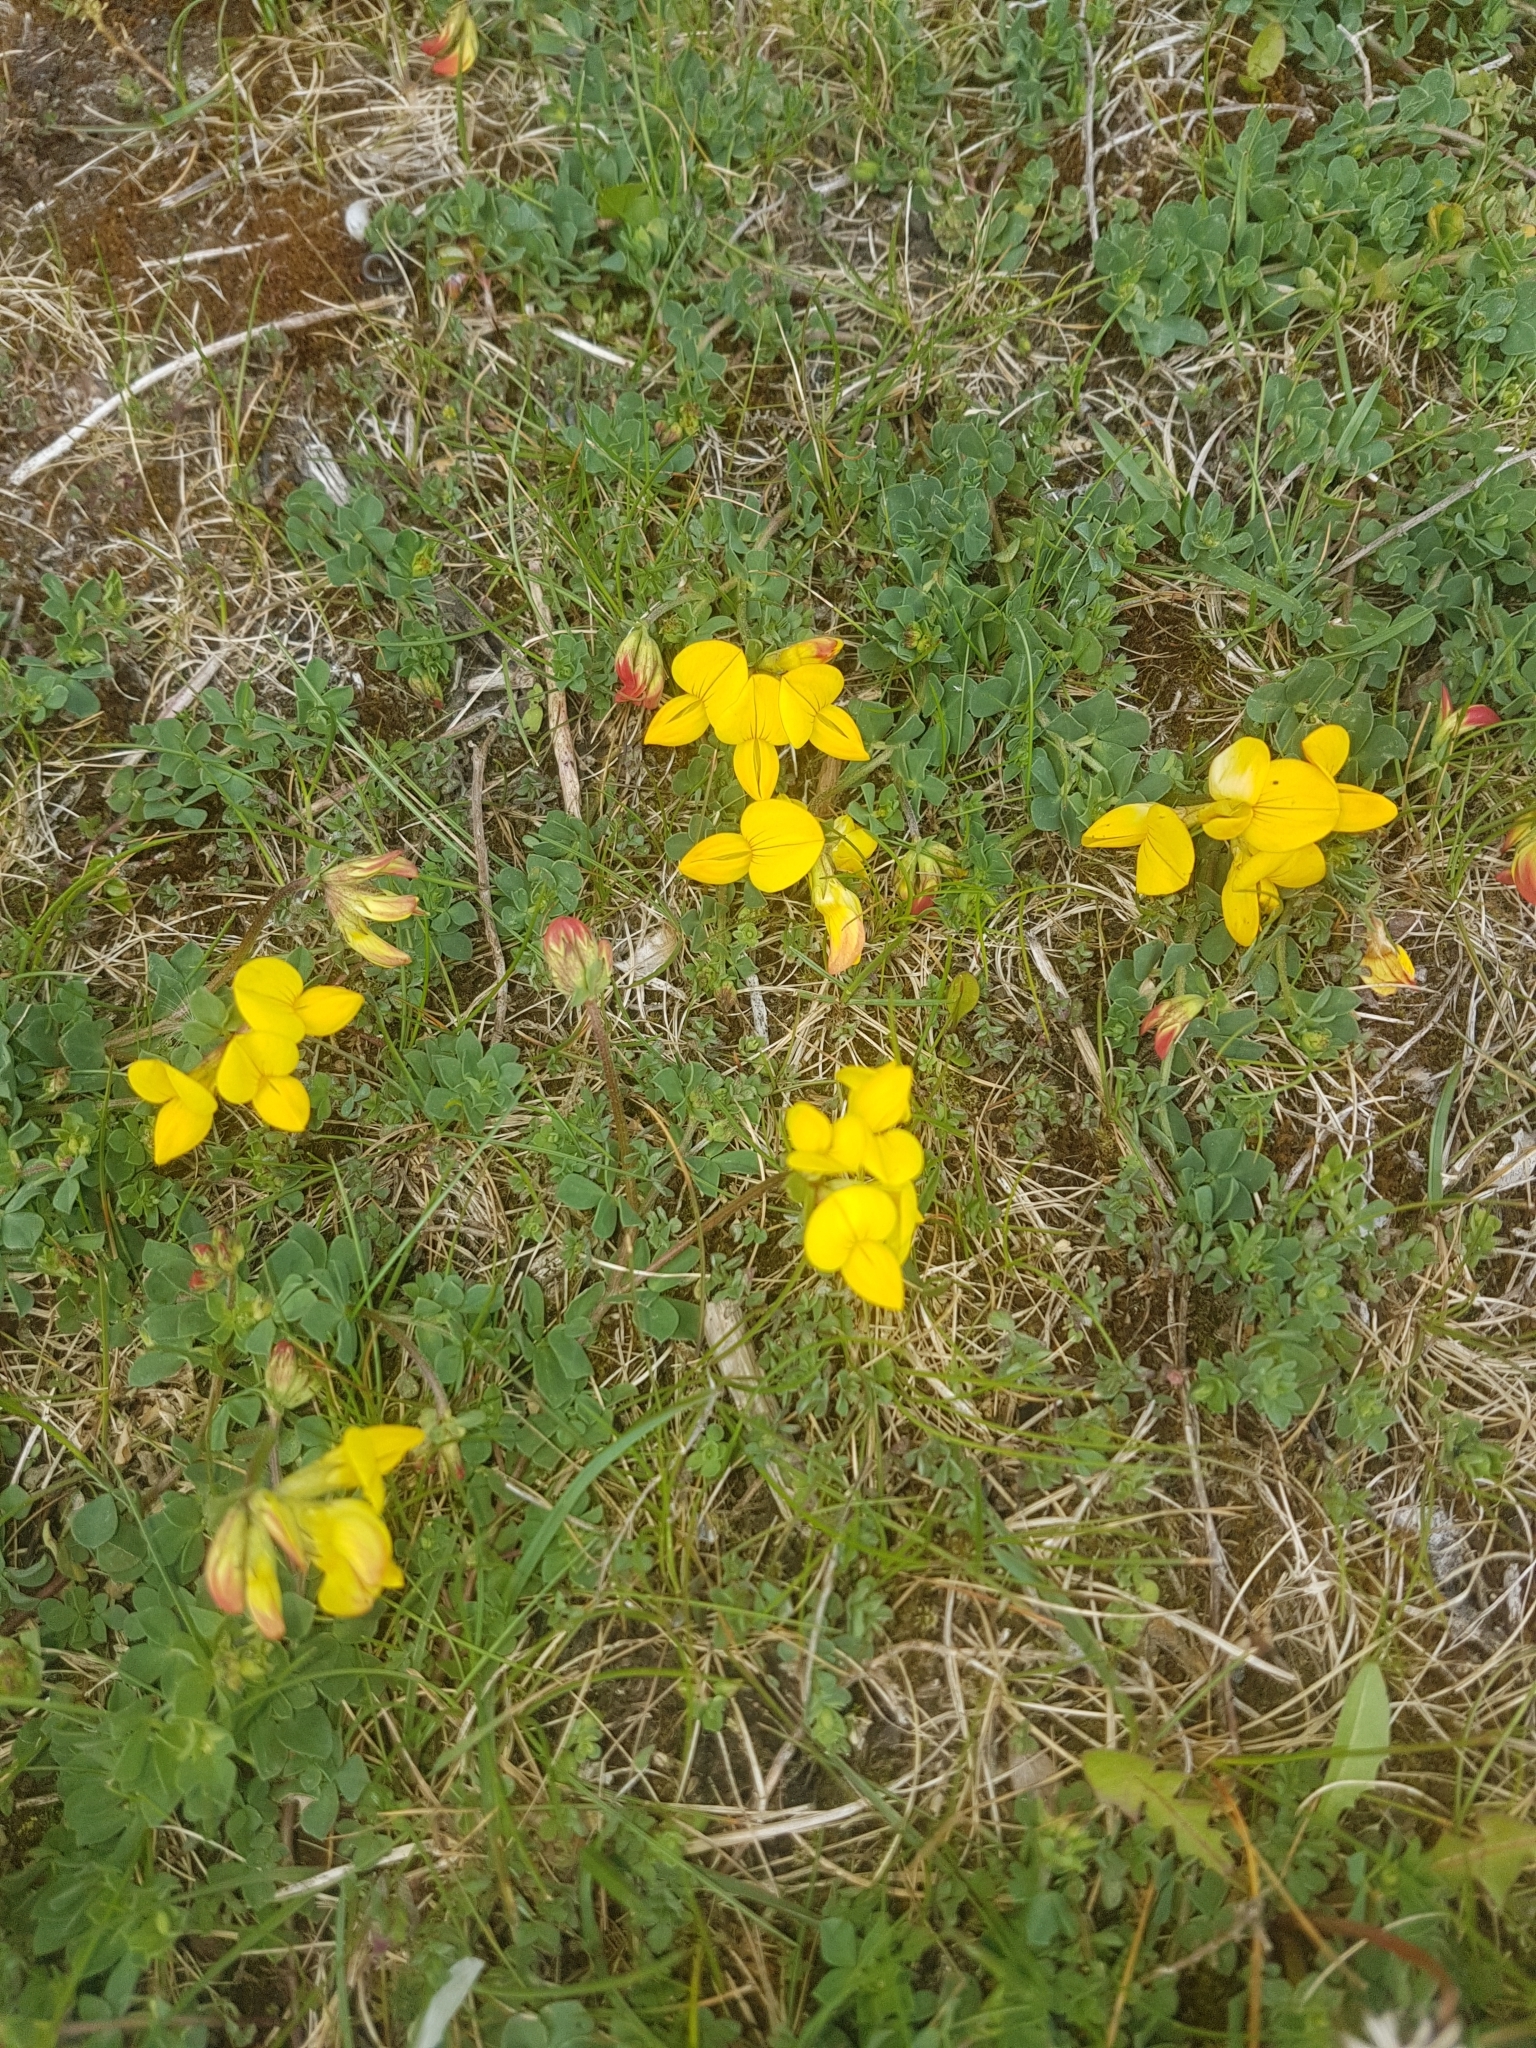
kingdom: Plantae
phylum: Tracheophyta
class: Magnoliopsida
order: Fabales
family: Fabaceae
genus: Lotus
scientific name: Lotus corniculatus
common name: Common bird's-foot-trefoil
